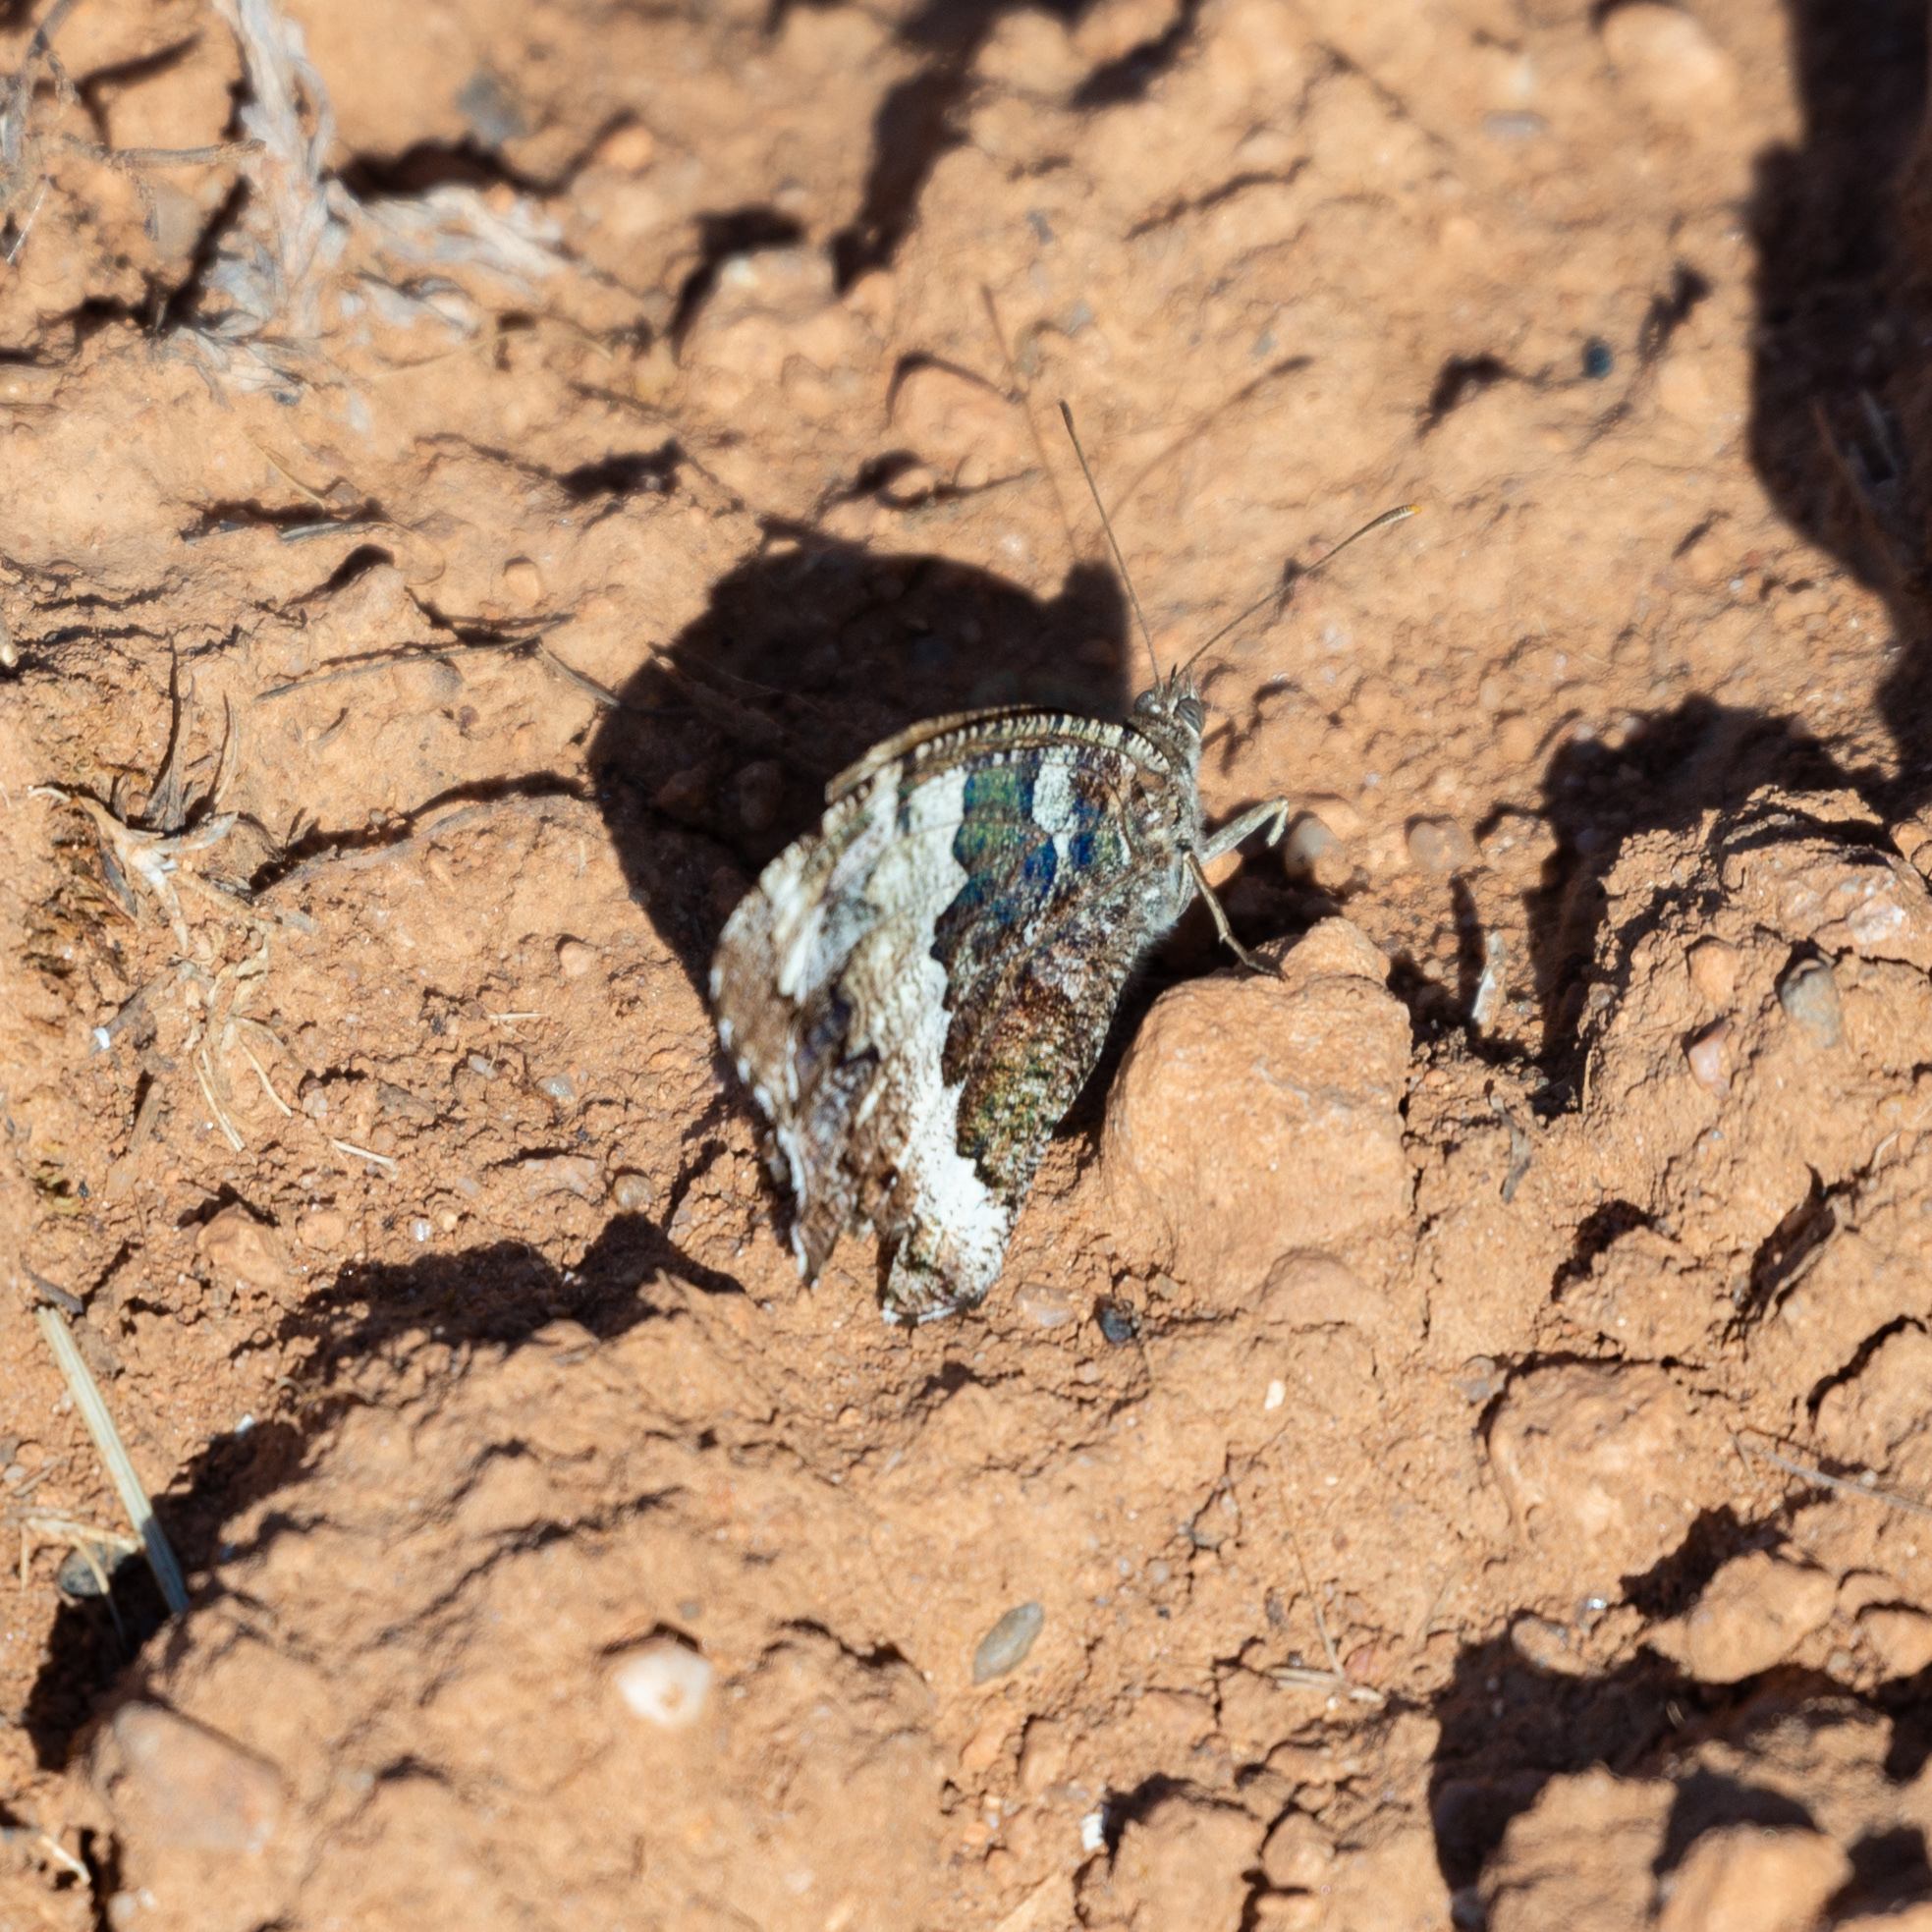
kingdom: Animalia
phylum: Arthropoda
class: Insecta
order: Lepidoptera
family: Lycaenidae
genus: Loweia
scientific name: Loweia tityrus
